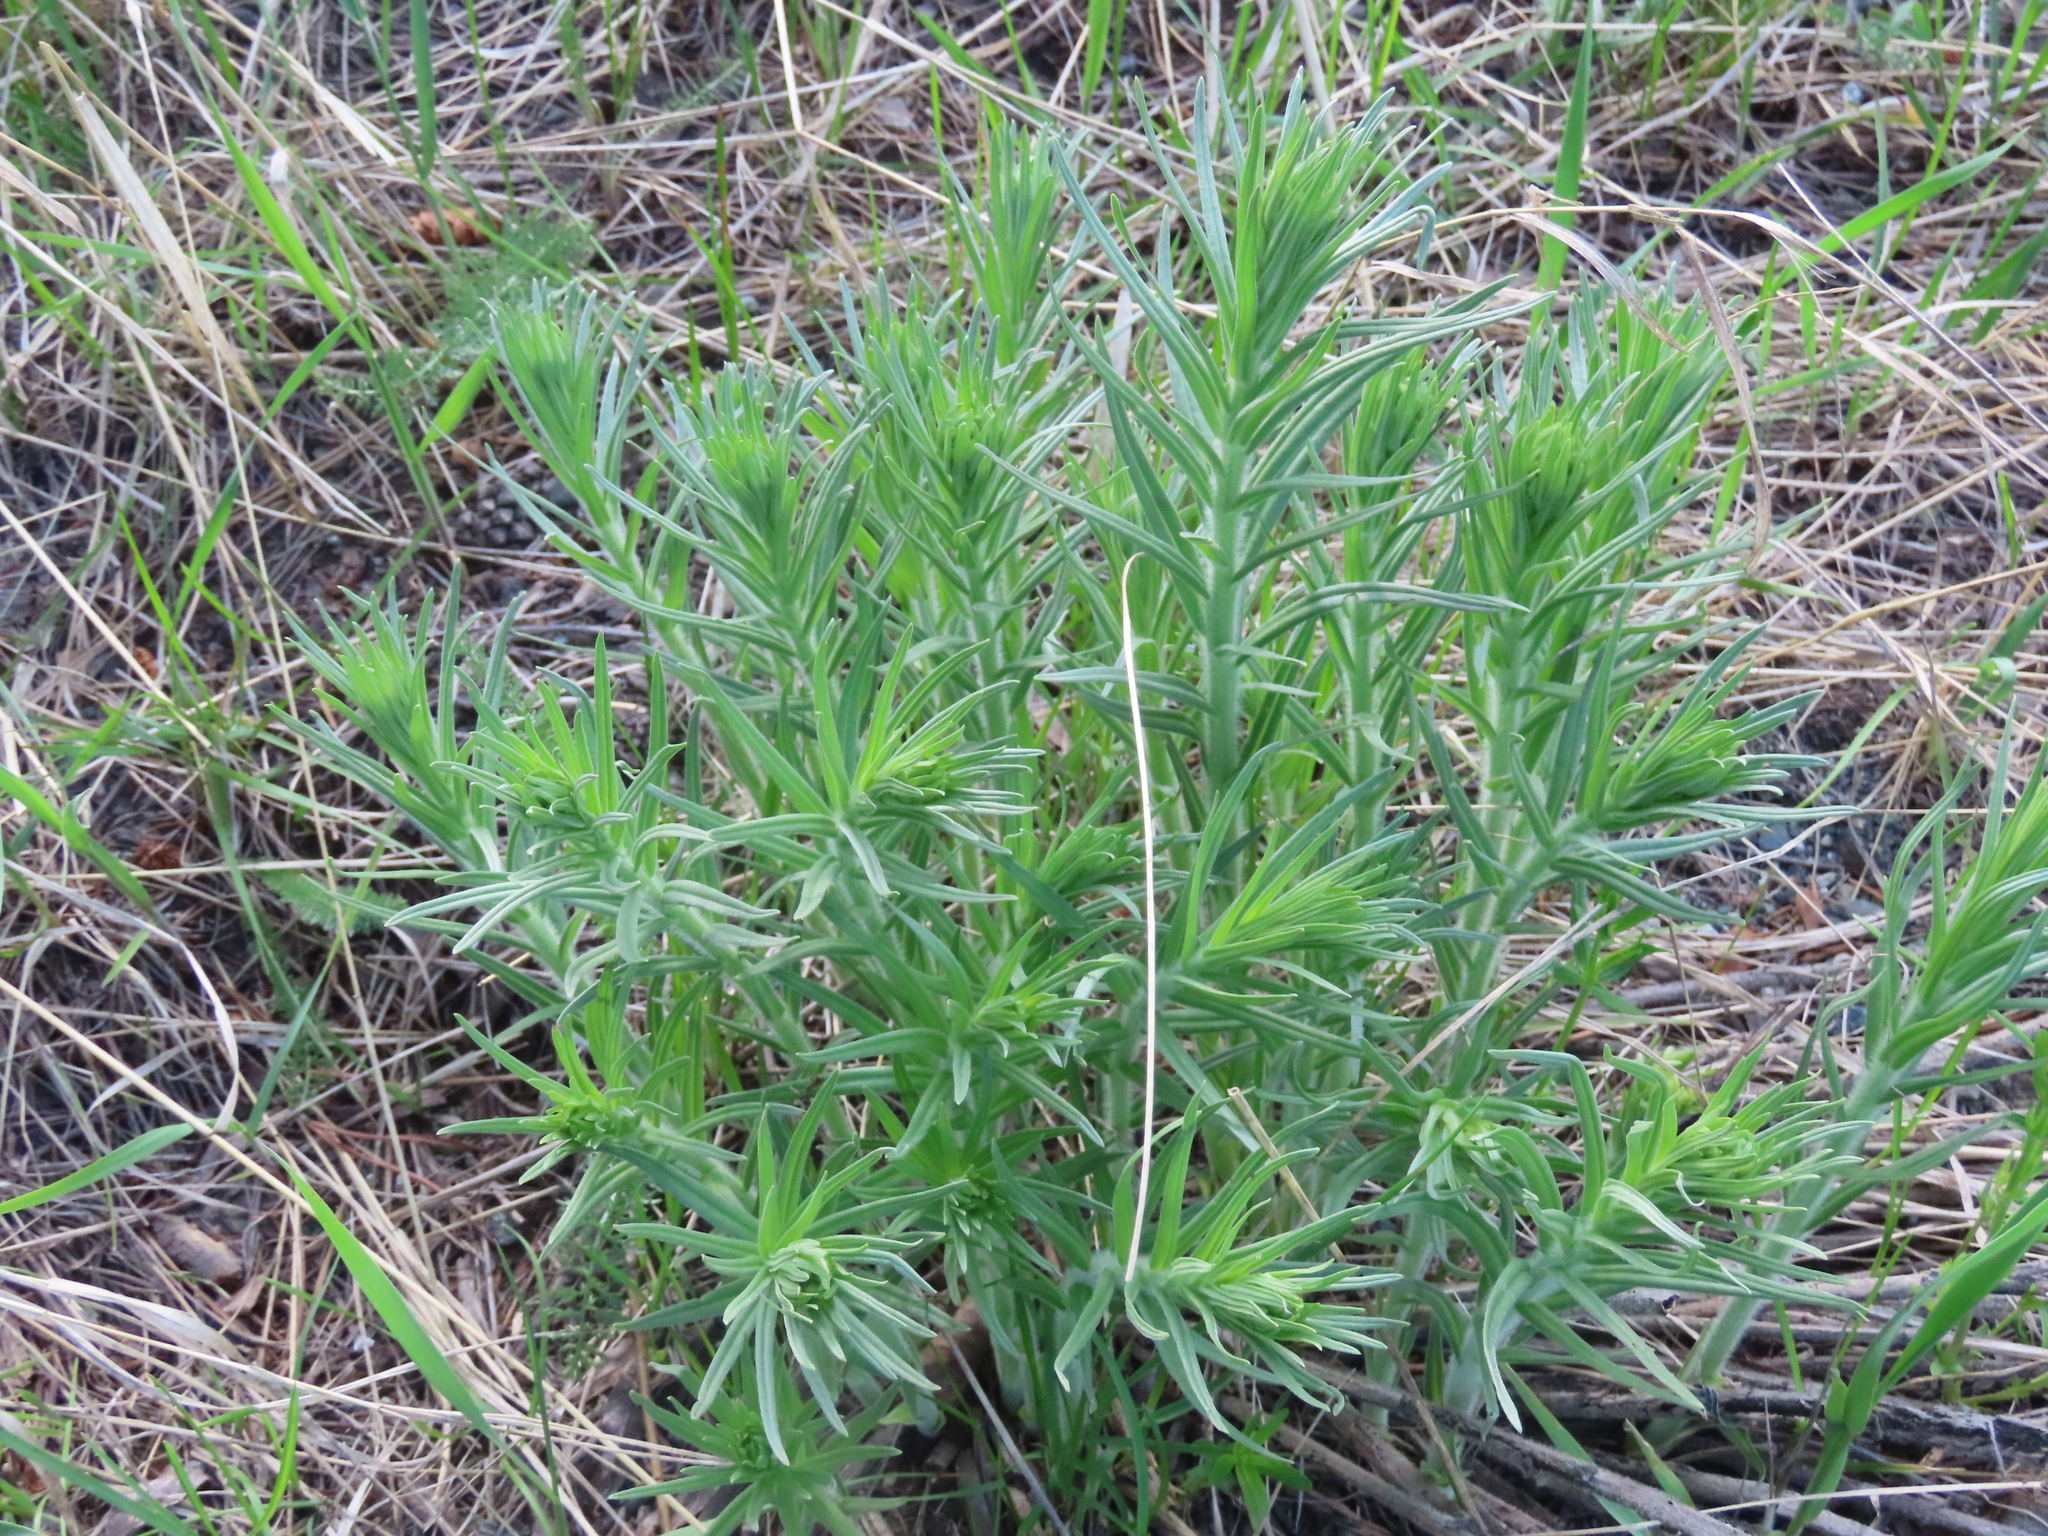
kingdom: Plantae
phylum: Tracheophyta
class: Magnoliopsida
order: Boraginales
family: Boraginaceae
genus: Lithospermum
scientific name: Lithospermum ruderale
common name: Western gromwell
